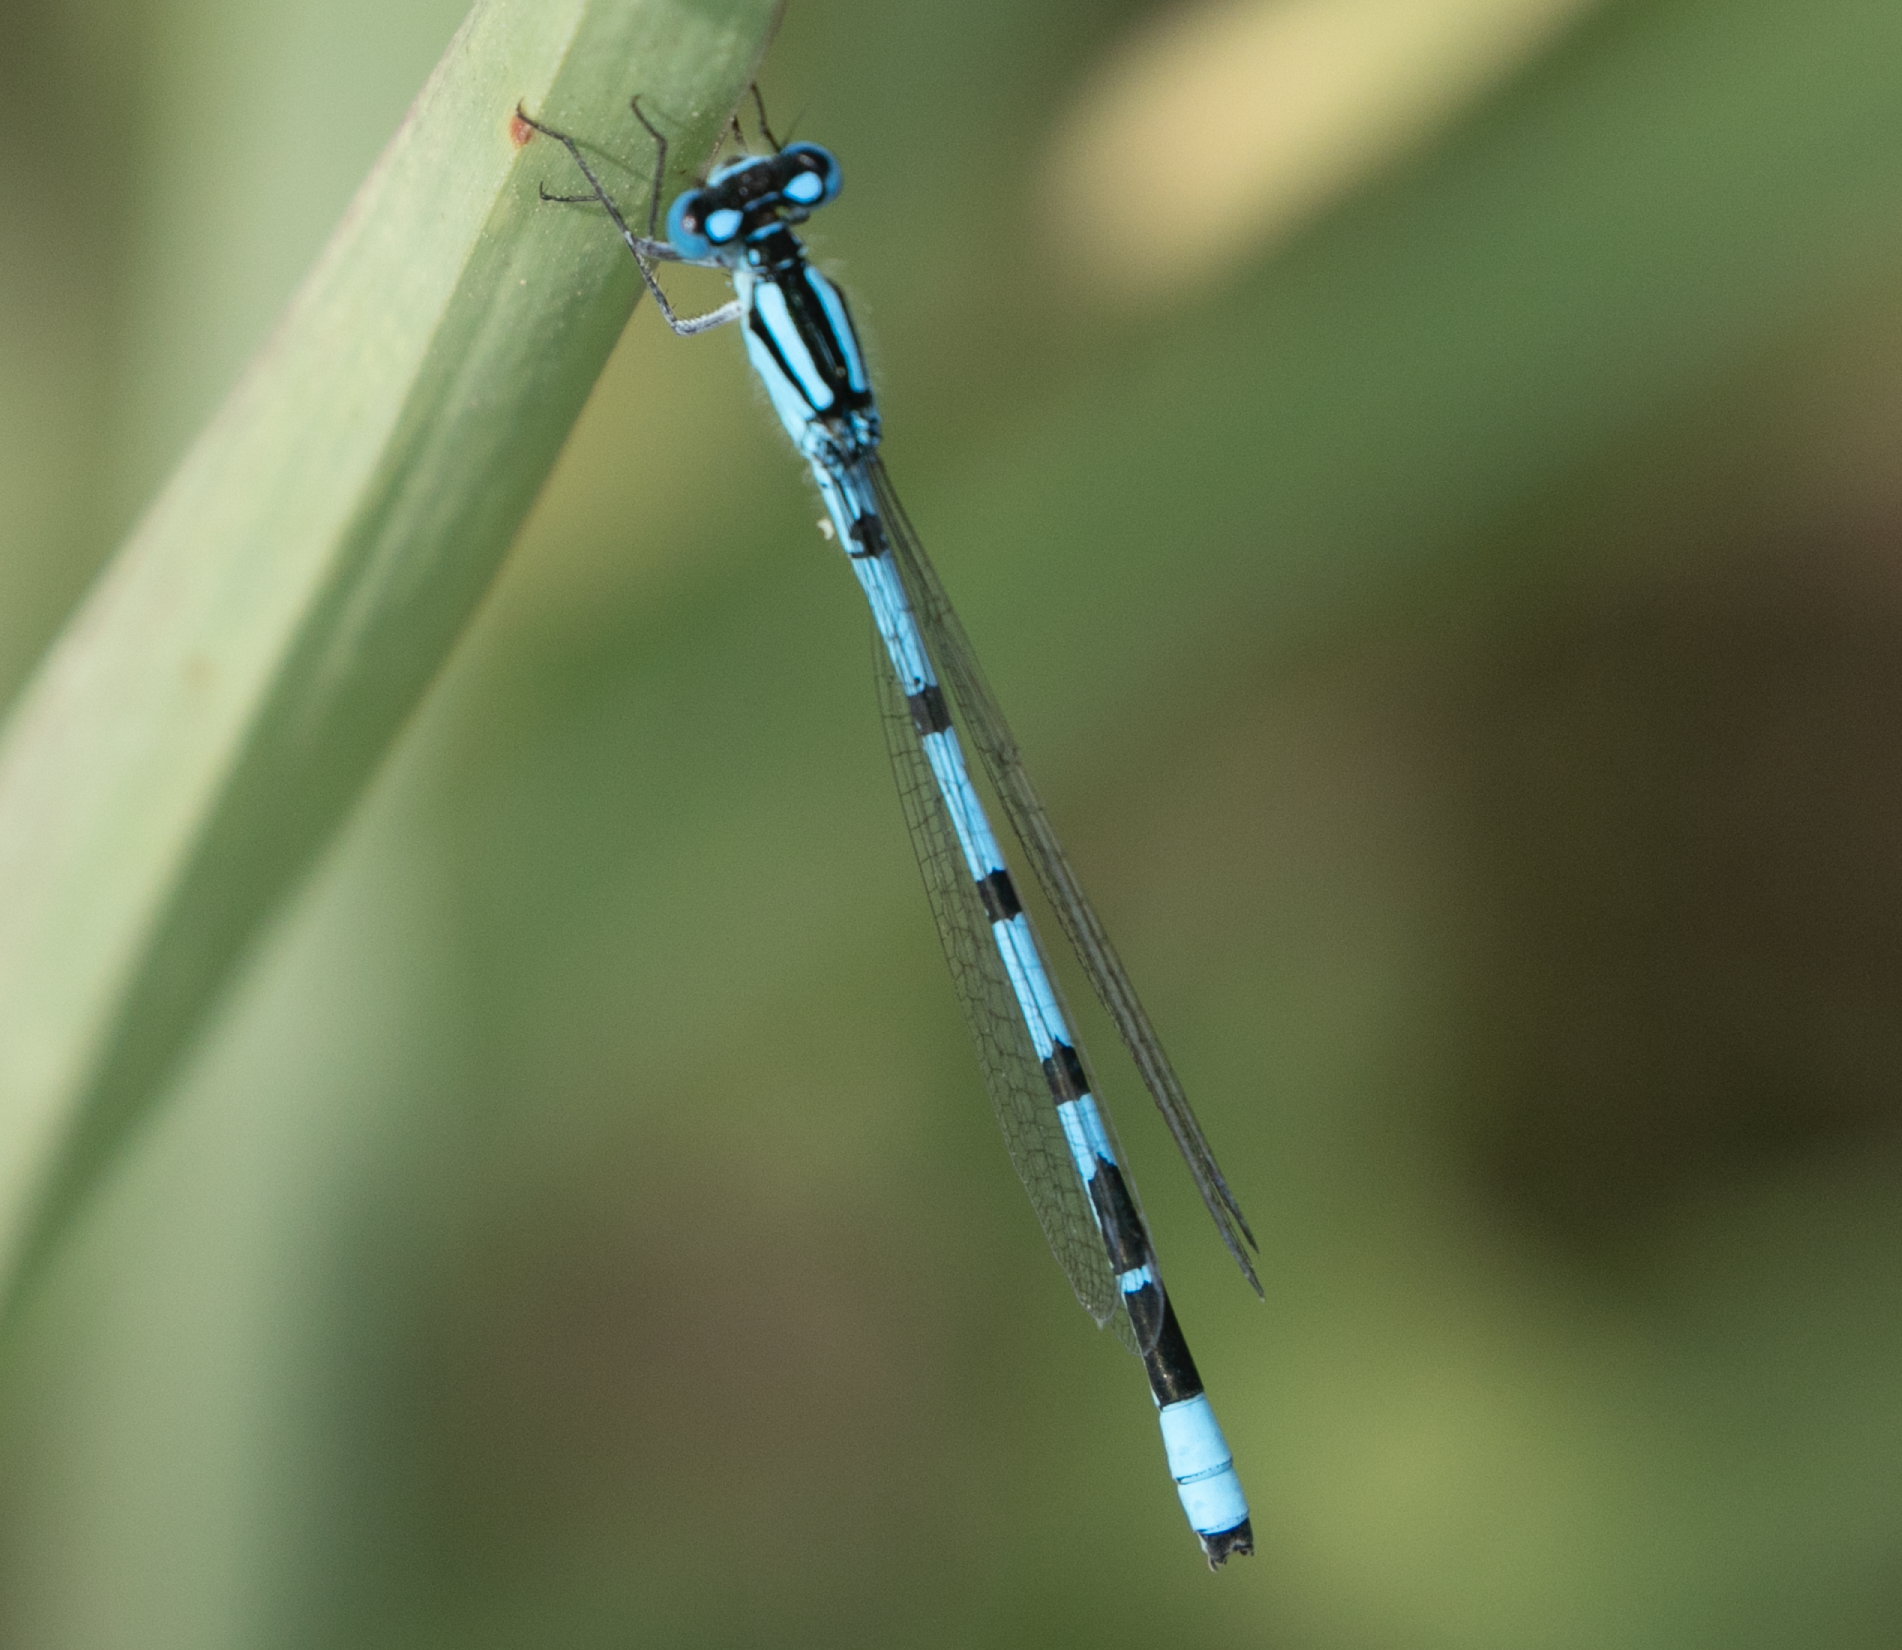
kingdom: Animalia
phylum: Arthropoda
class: Insecta
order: Odonata
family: Coenagrionidae
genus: Enallagma
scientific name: Enallagma cyathigerum
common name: Common blue damselfly
